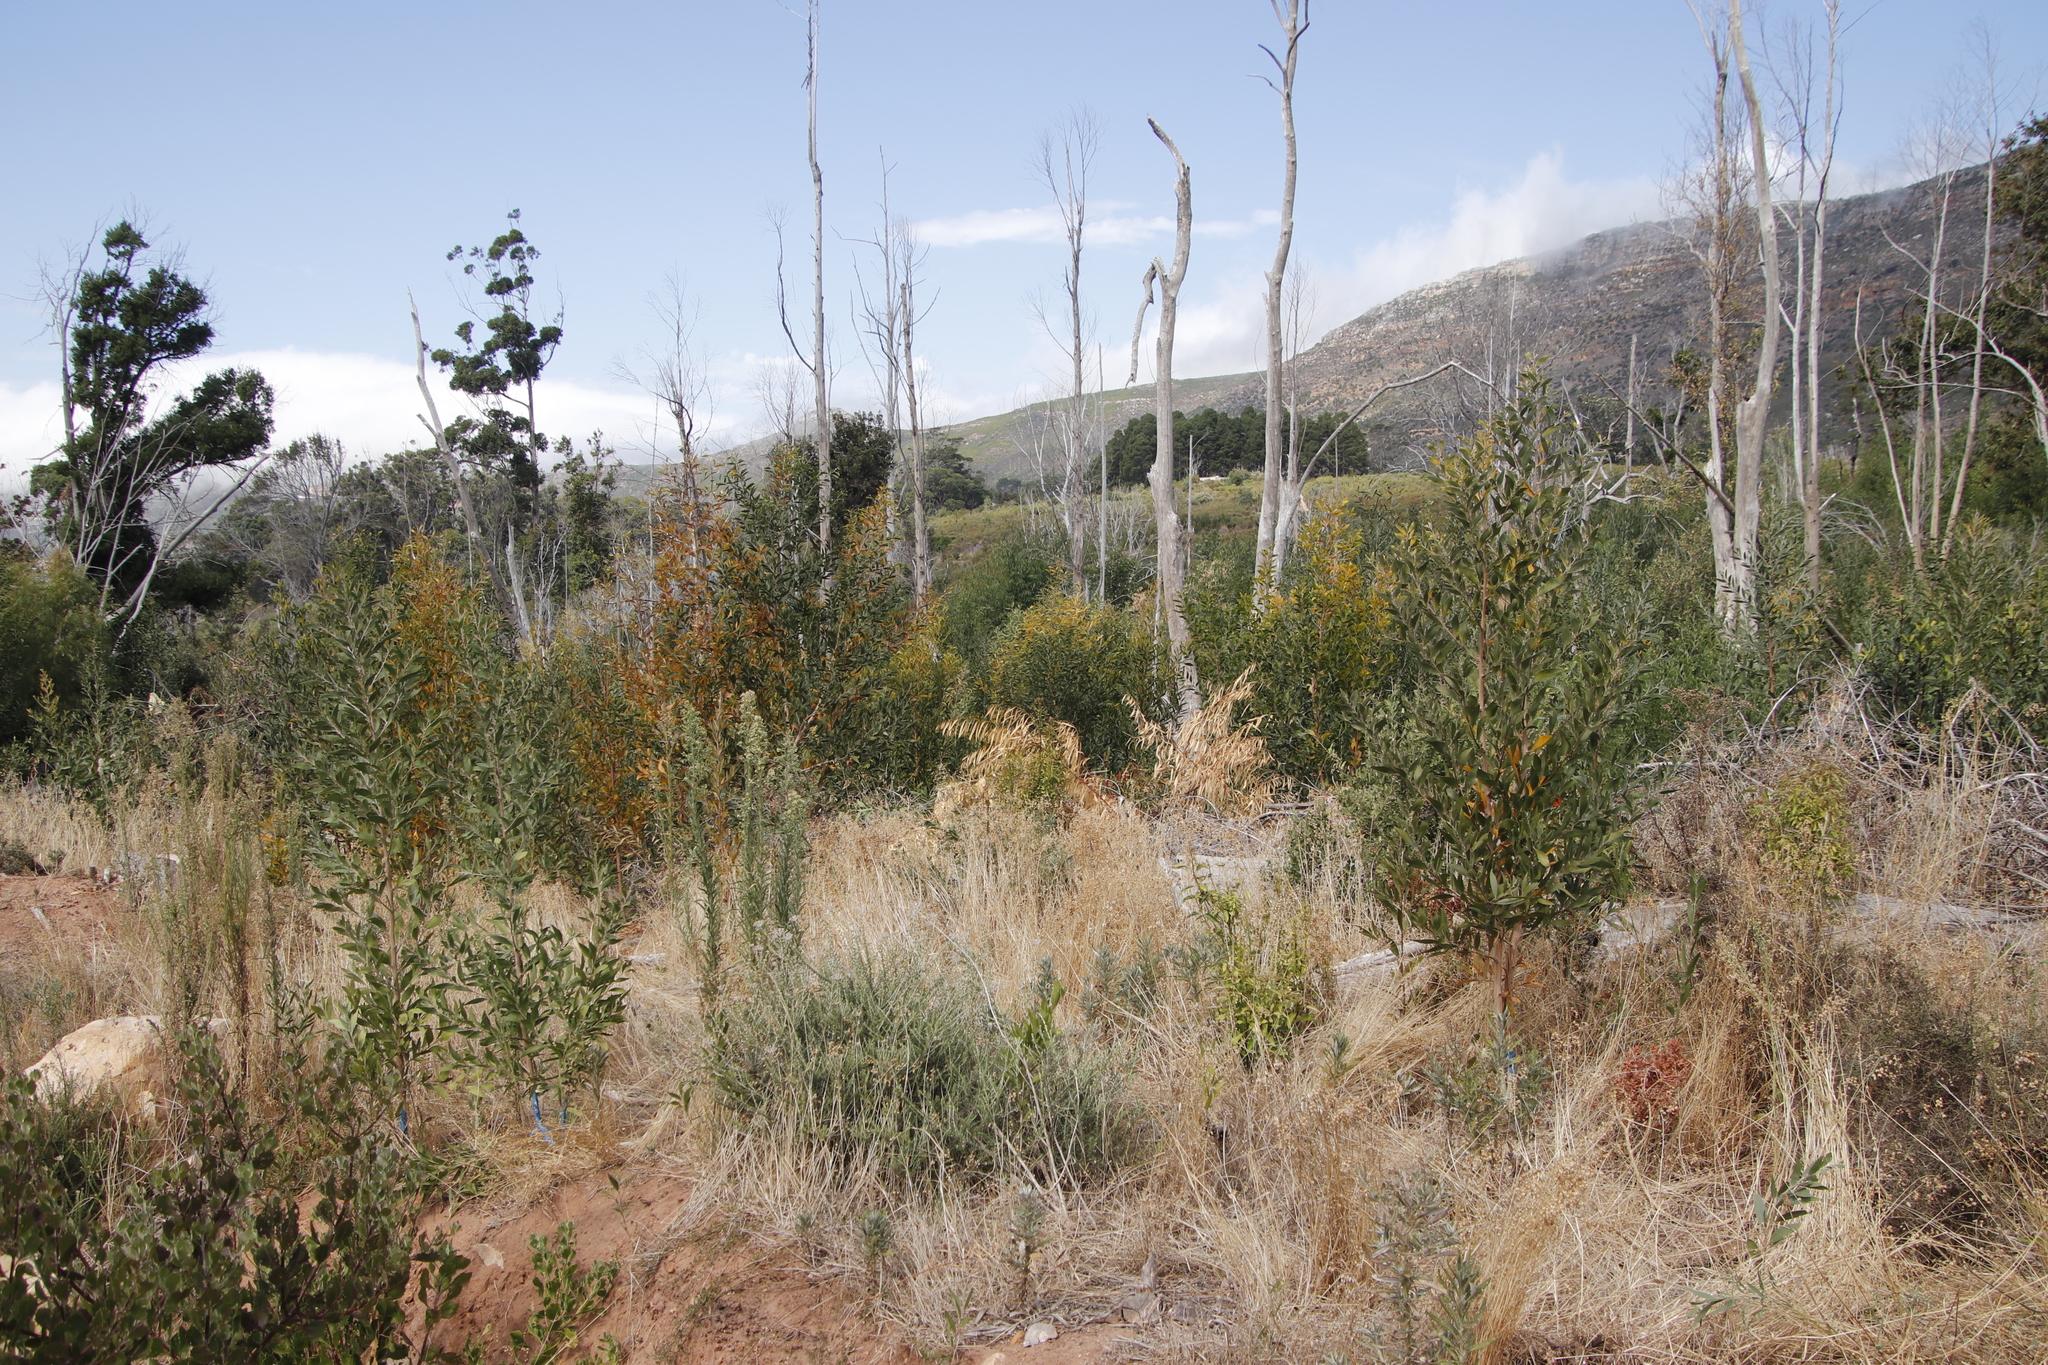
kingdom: Plantae
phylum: Tracheophyta
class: Liliopsida
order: Poales
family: Poaceae
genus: Briza
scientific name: Briza maxima
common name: Big quakinggrass
